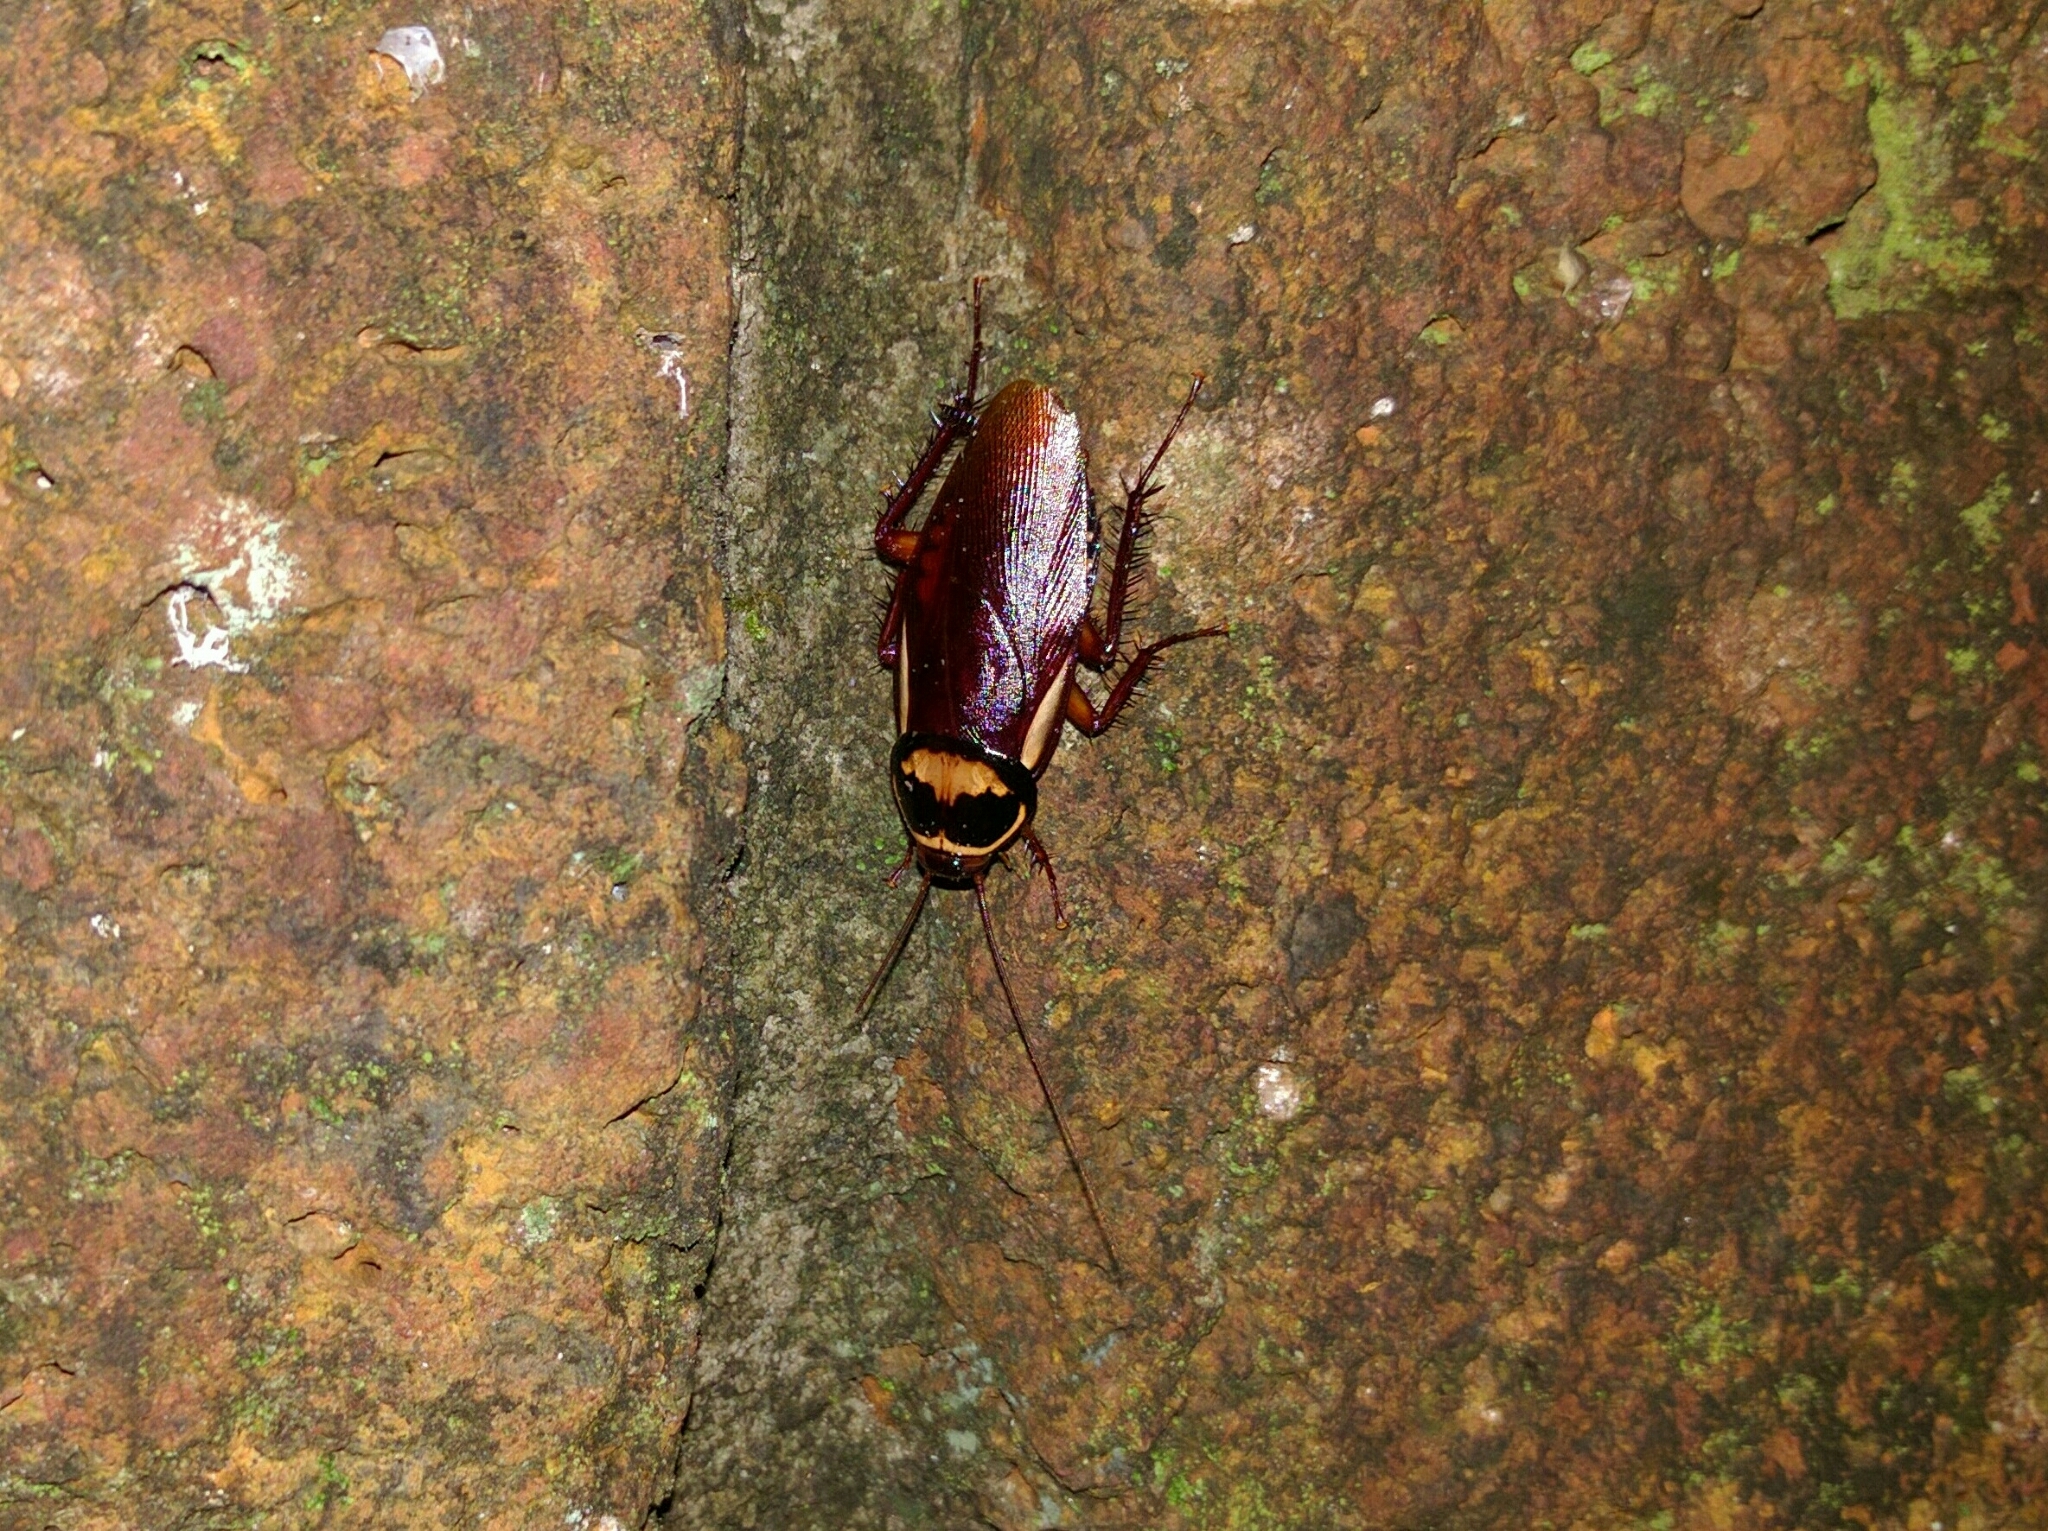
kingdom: Animalia
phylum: Arthropoda
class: Insecta
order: Blattodea
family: Blattidae
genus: Periplaneta
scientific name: Periplaneta australasiae
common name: Australian cockroach
